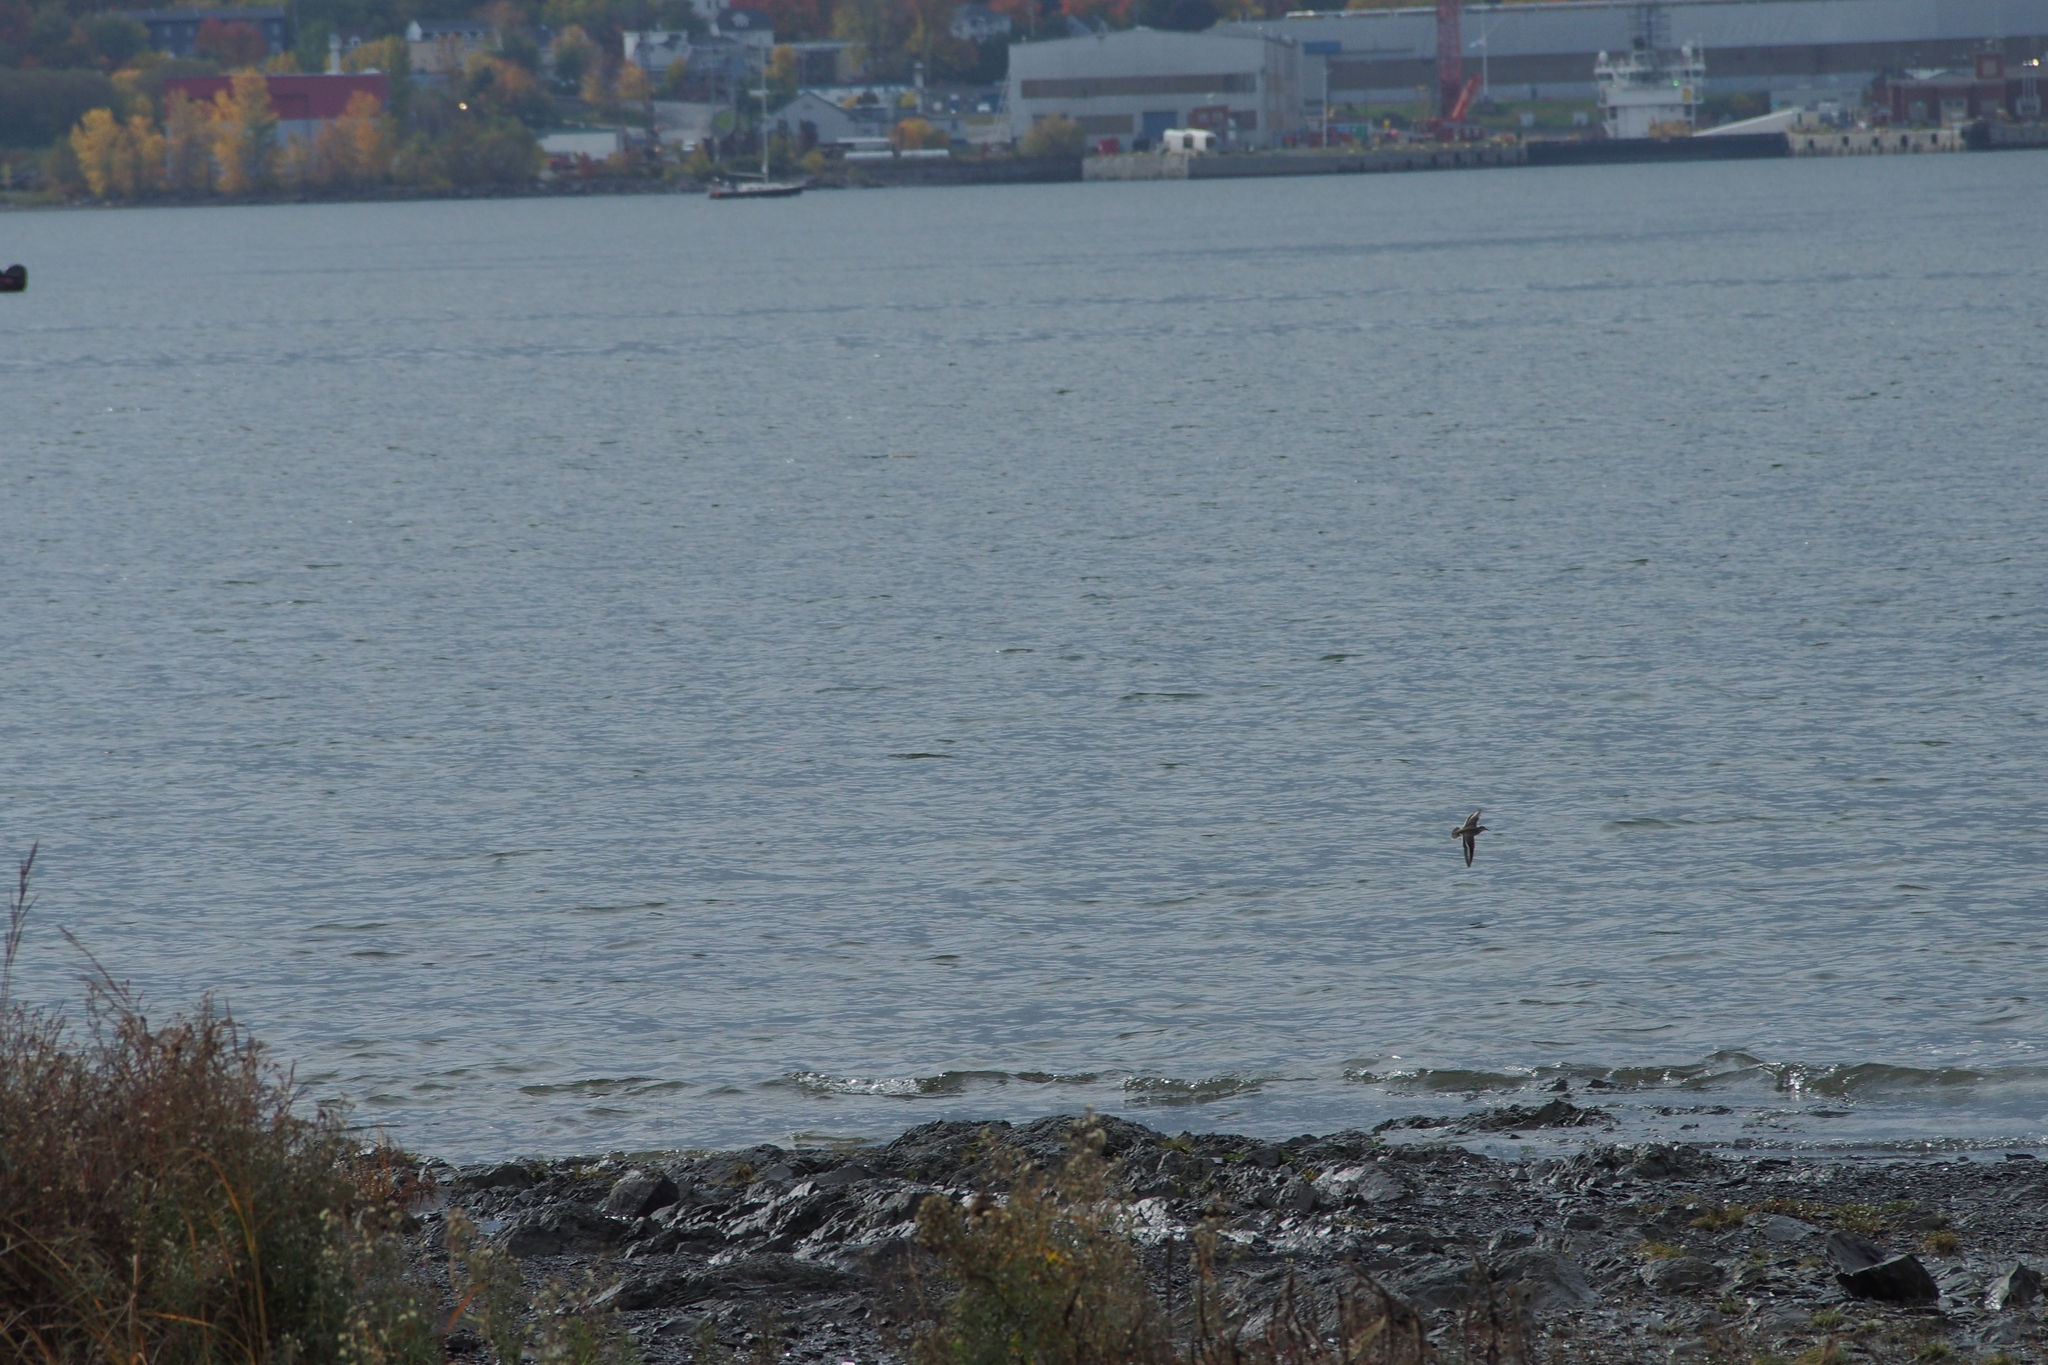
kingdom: Animalia
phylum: Chordata
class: Aves
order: Charadriiformes
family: Scolopacidae
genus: Actitis
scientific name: Actitis macularius
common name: Spotted sandpiper
